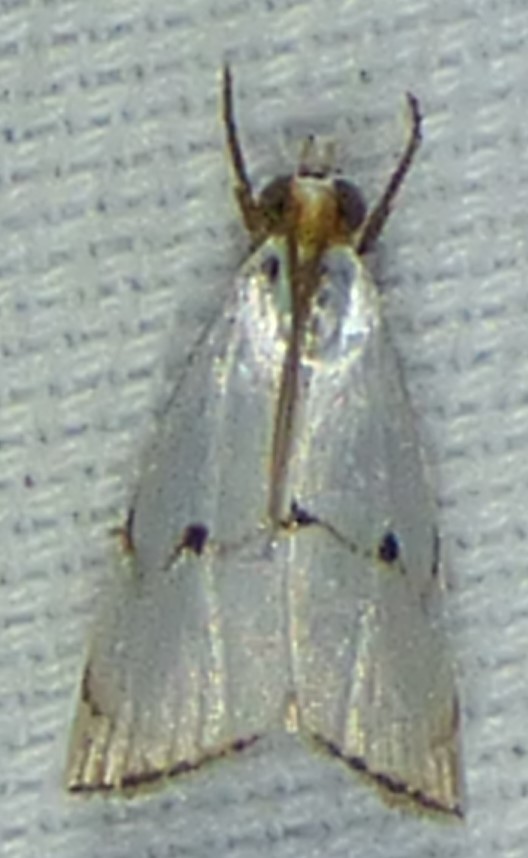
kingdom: Animalia
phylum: Arthropoda
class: Insecta
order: Lepidoptera
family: Crambidae
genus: Argyria
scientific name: Argyria pusillalis
